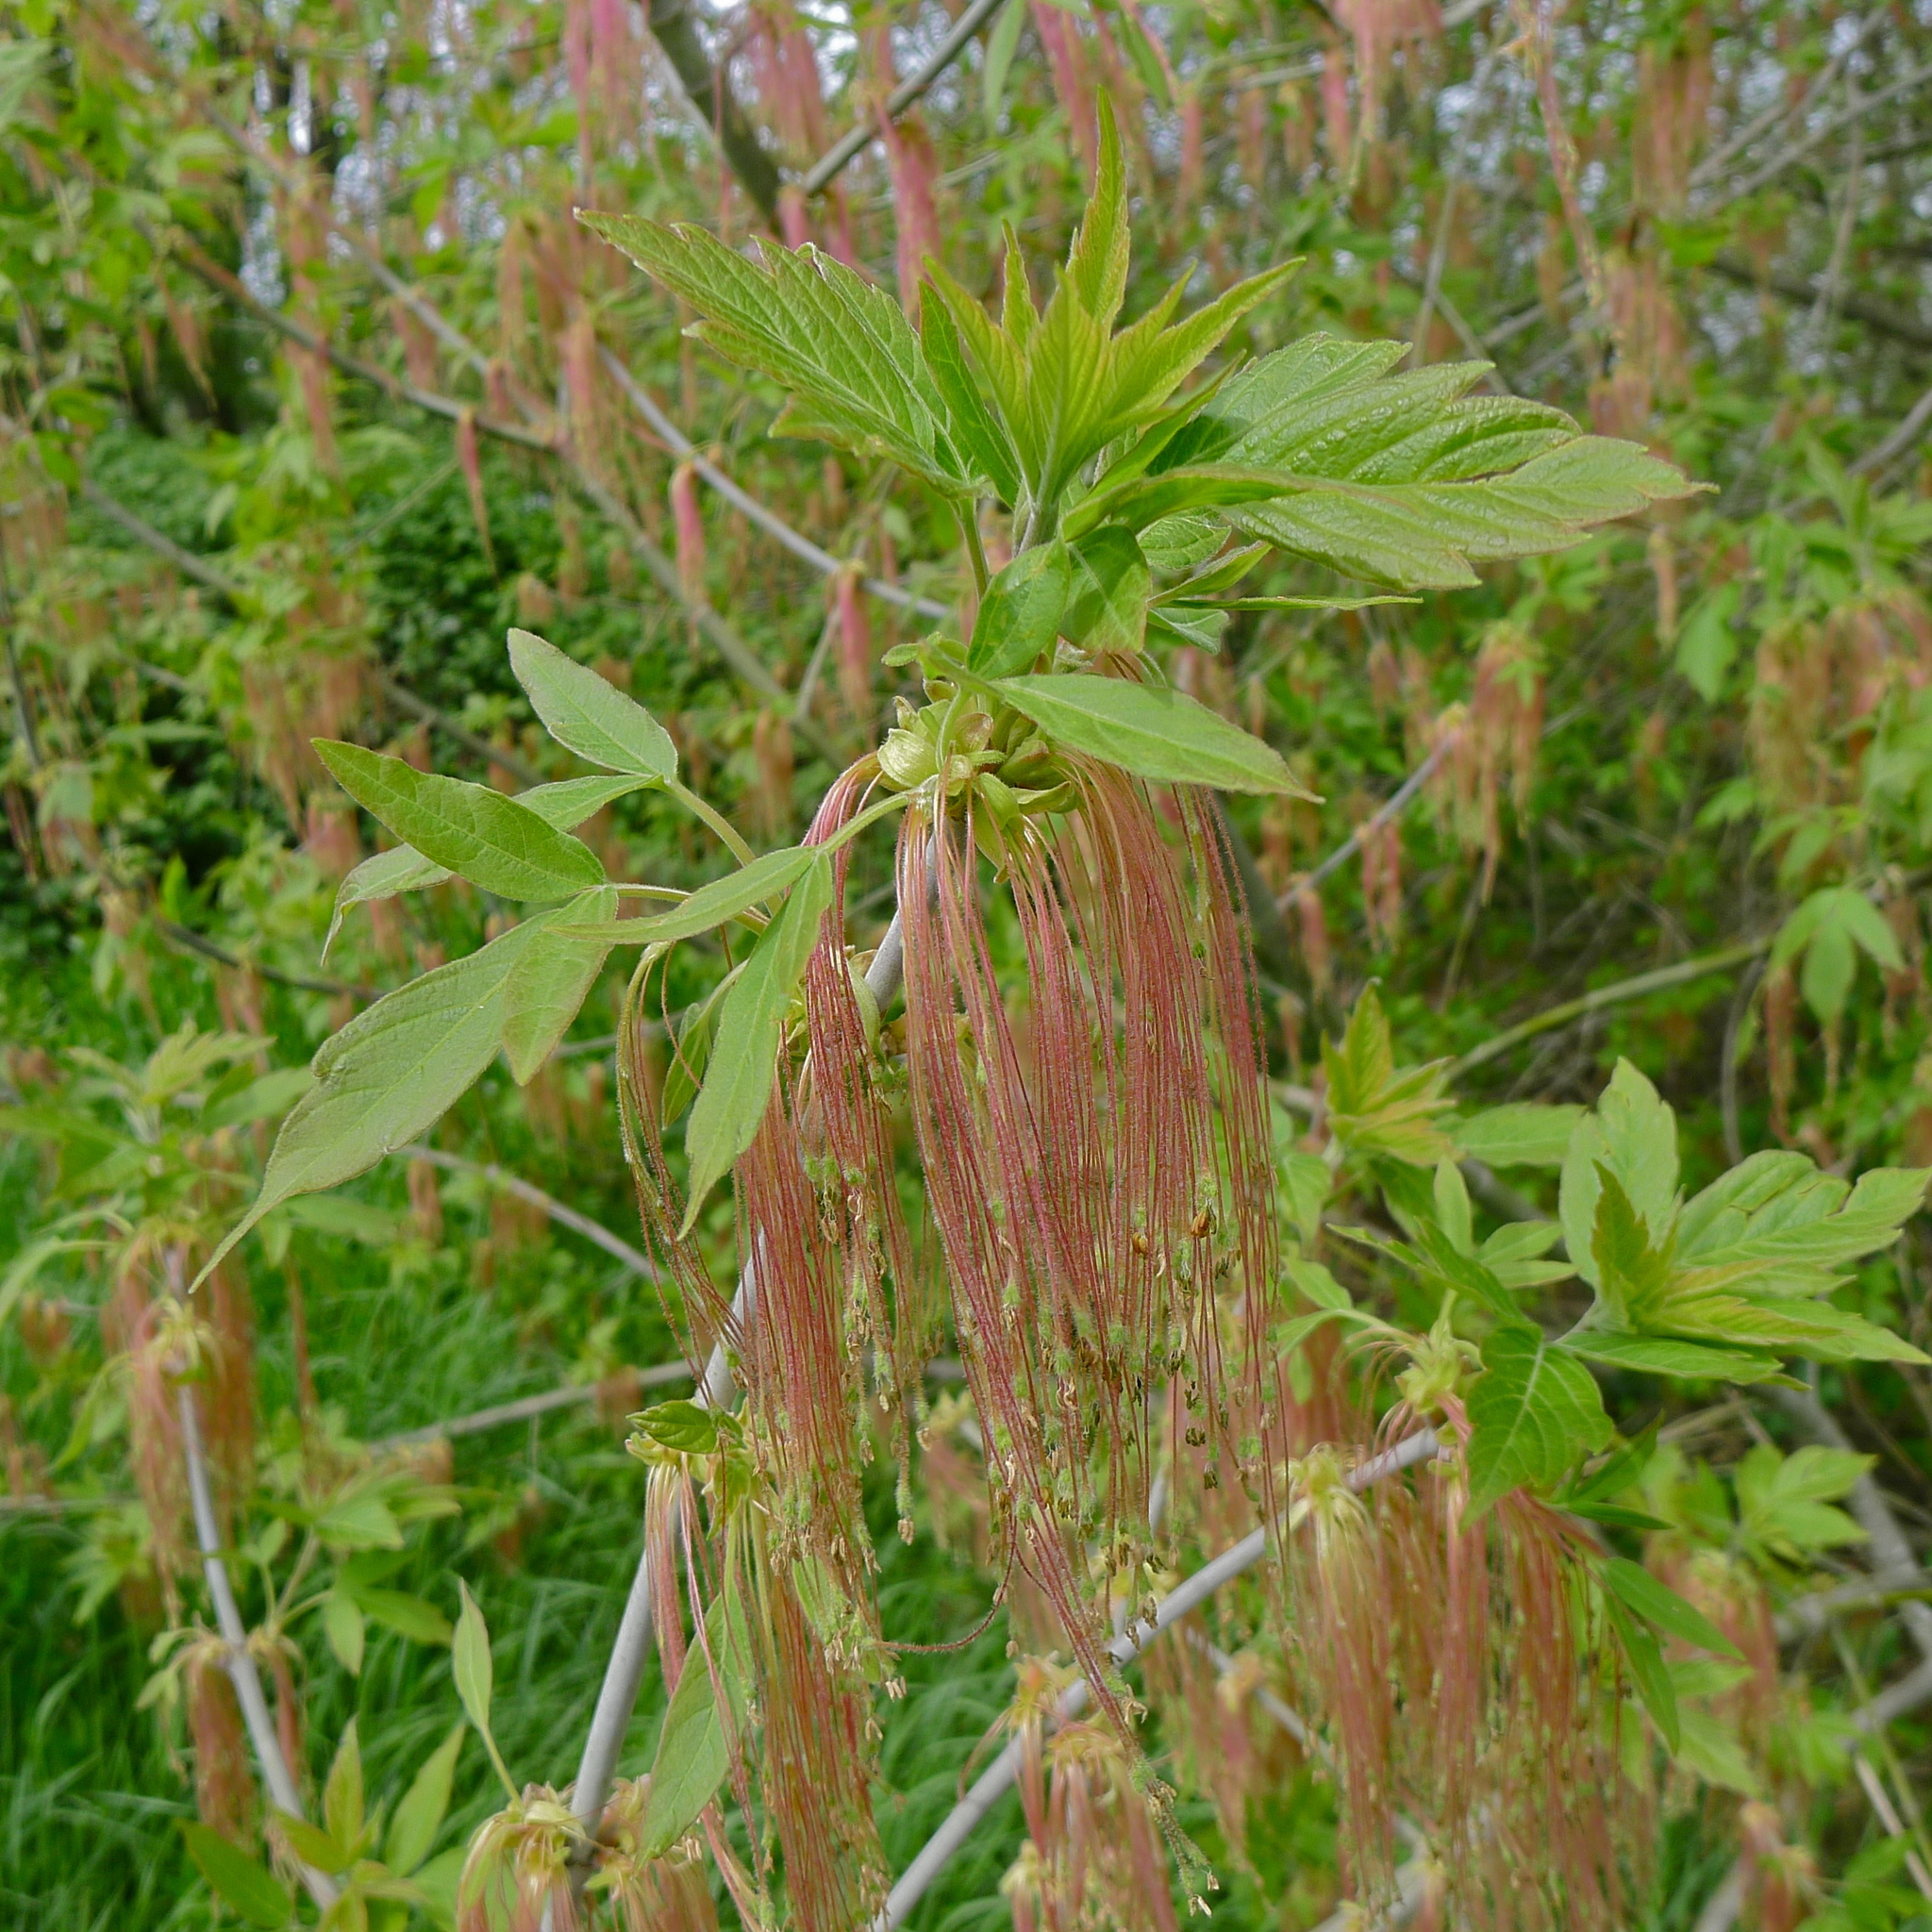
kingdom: Plantae
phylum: Tracheophyta
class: Magnoliopsida
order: Sapindales
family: Sapindaceae
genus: Acer
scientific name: Acer negundo
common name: Ashleaf maple
